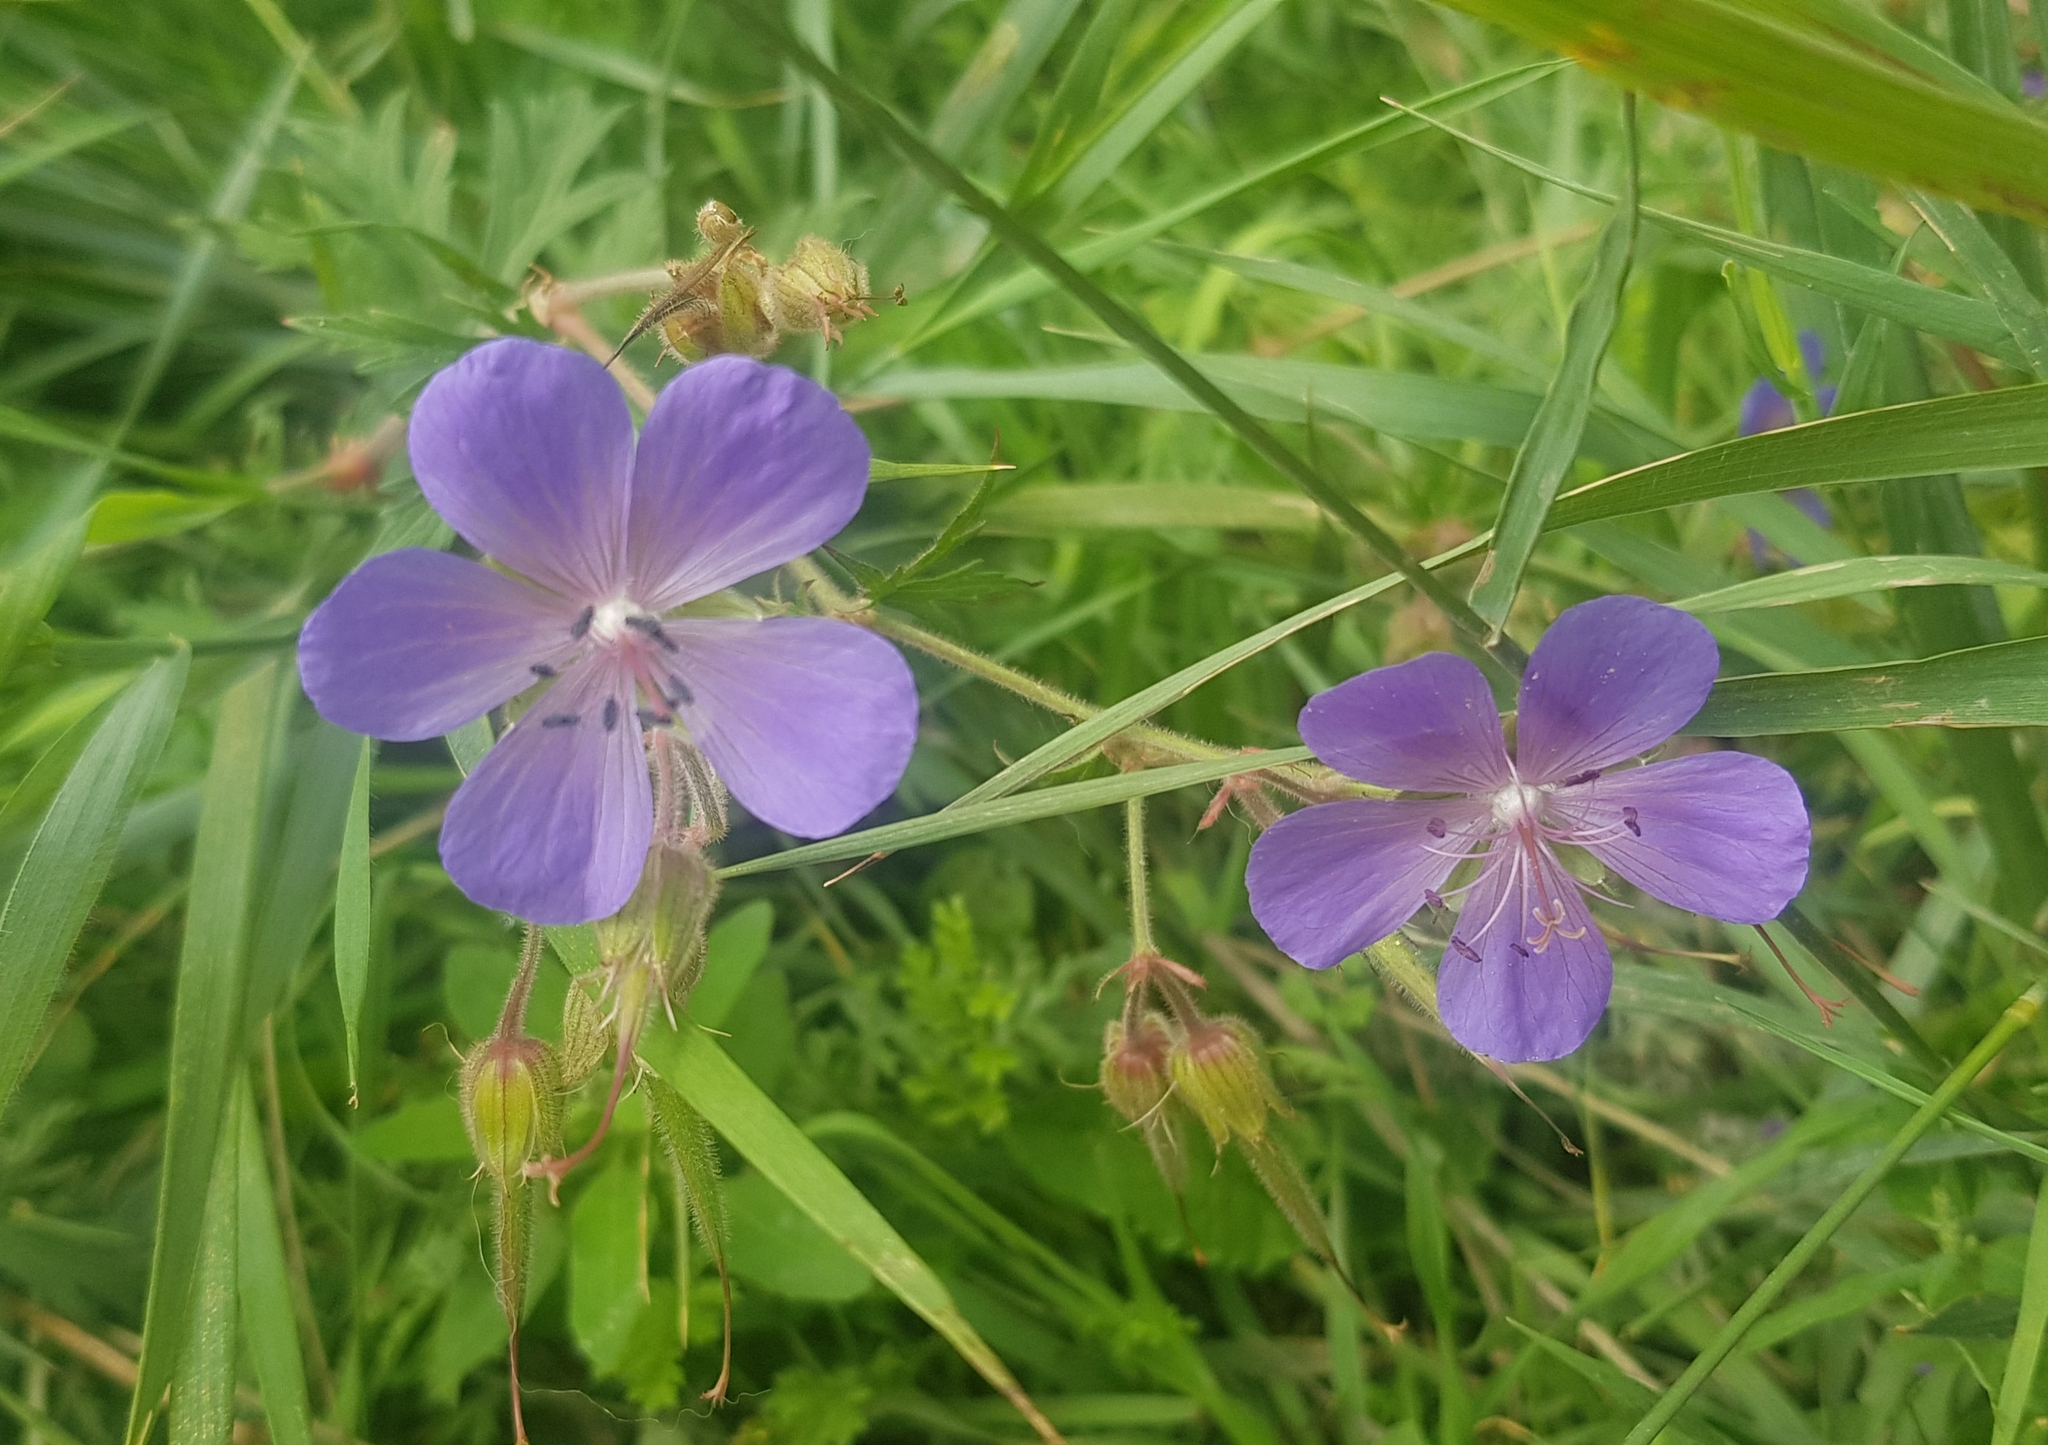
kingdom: Plantae
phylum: Tracheophyta
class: Magnoliopsida
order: Geraniales
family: Geraniaceae
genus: Geranium
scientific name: Geranium pratense
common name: Meadow crane's-bill
